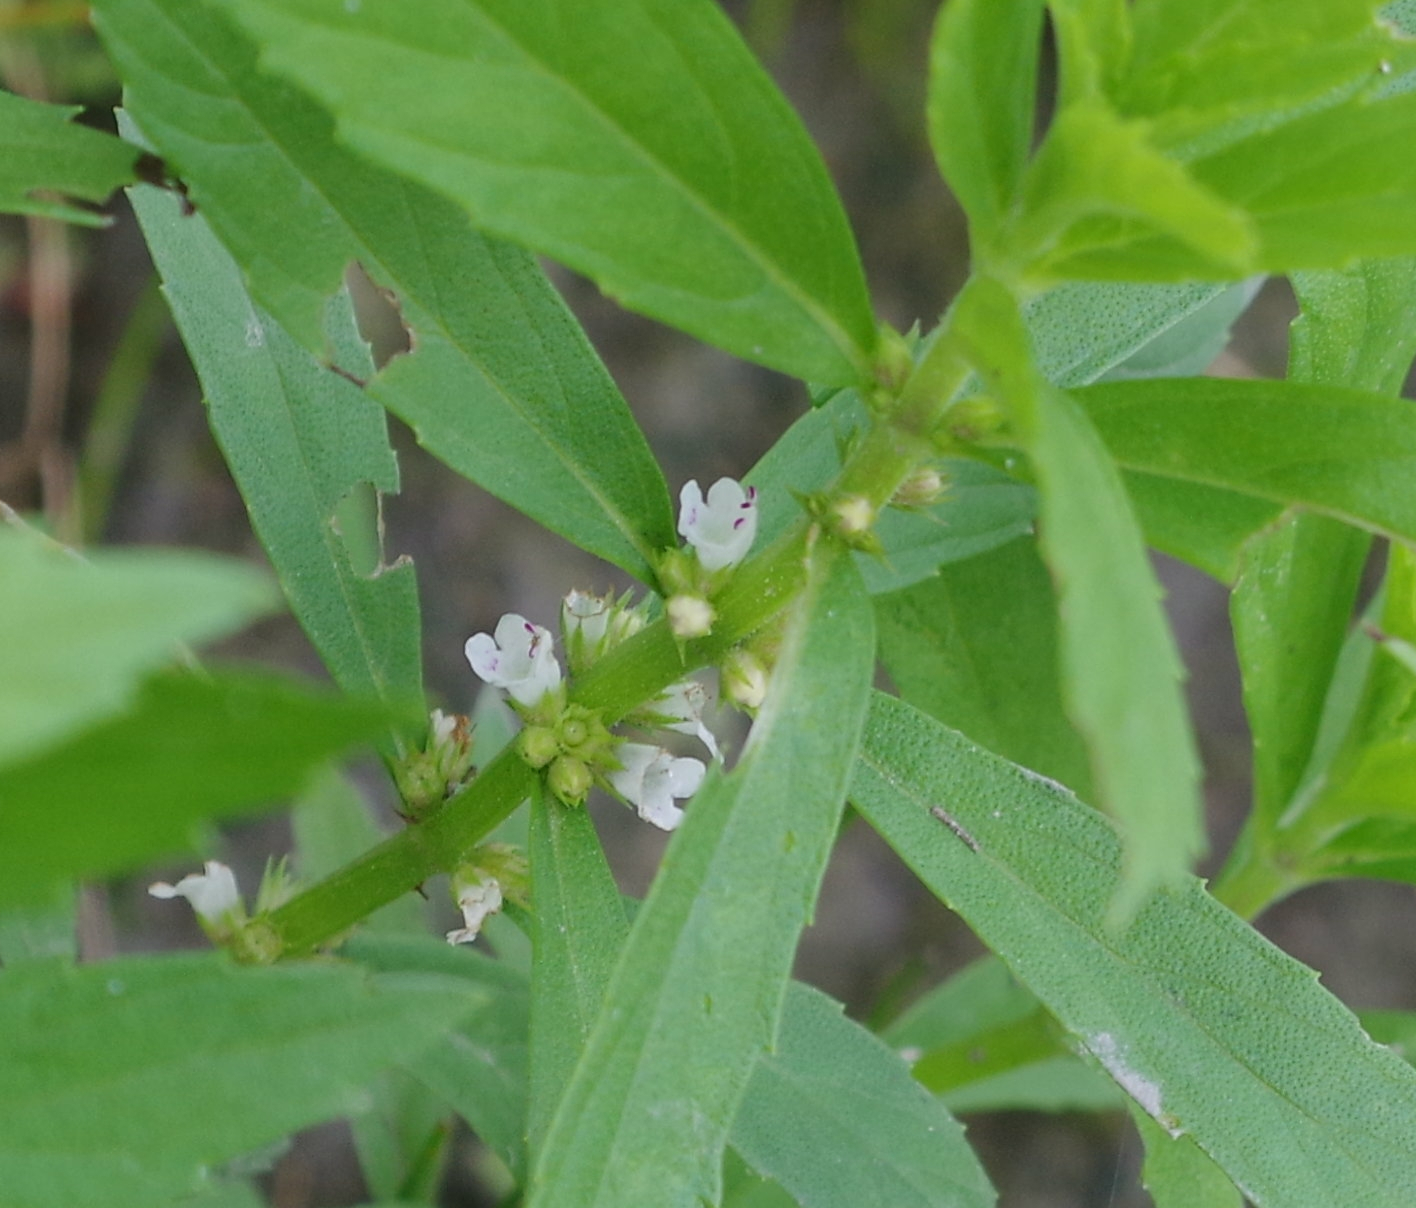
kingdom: Plantae
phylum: Tracheophyta
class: Magnoliopsida
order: Lamiales
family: Lamiaceae
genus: Lycopus
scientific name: Lycopus uniflorus
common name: Northern bugleweed
